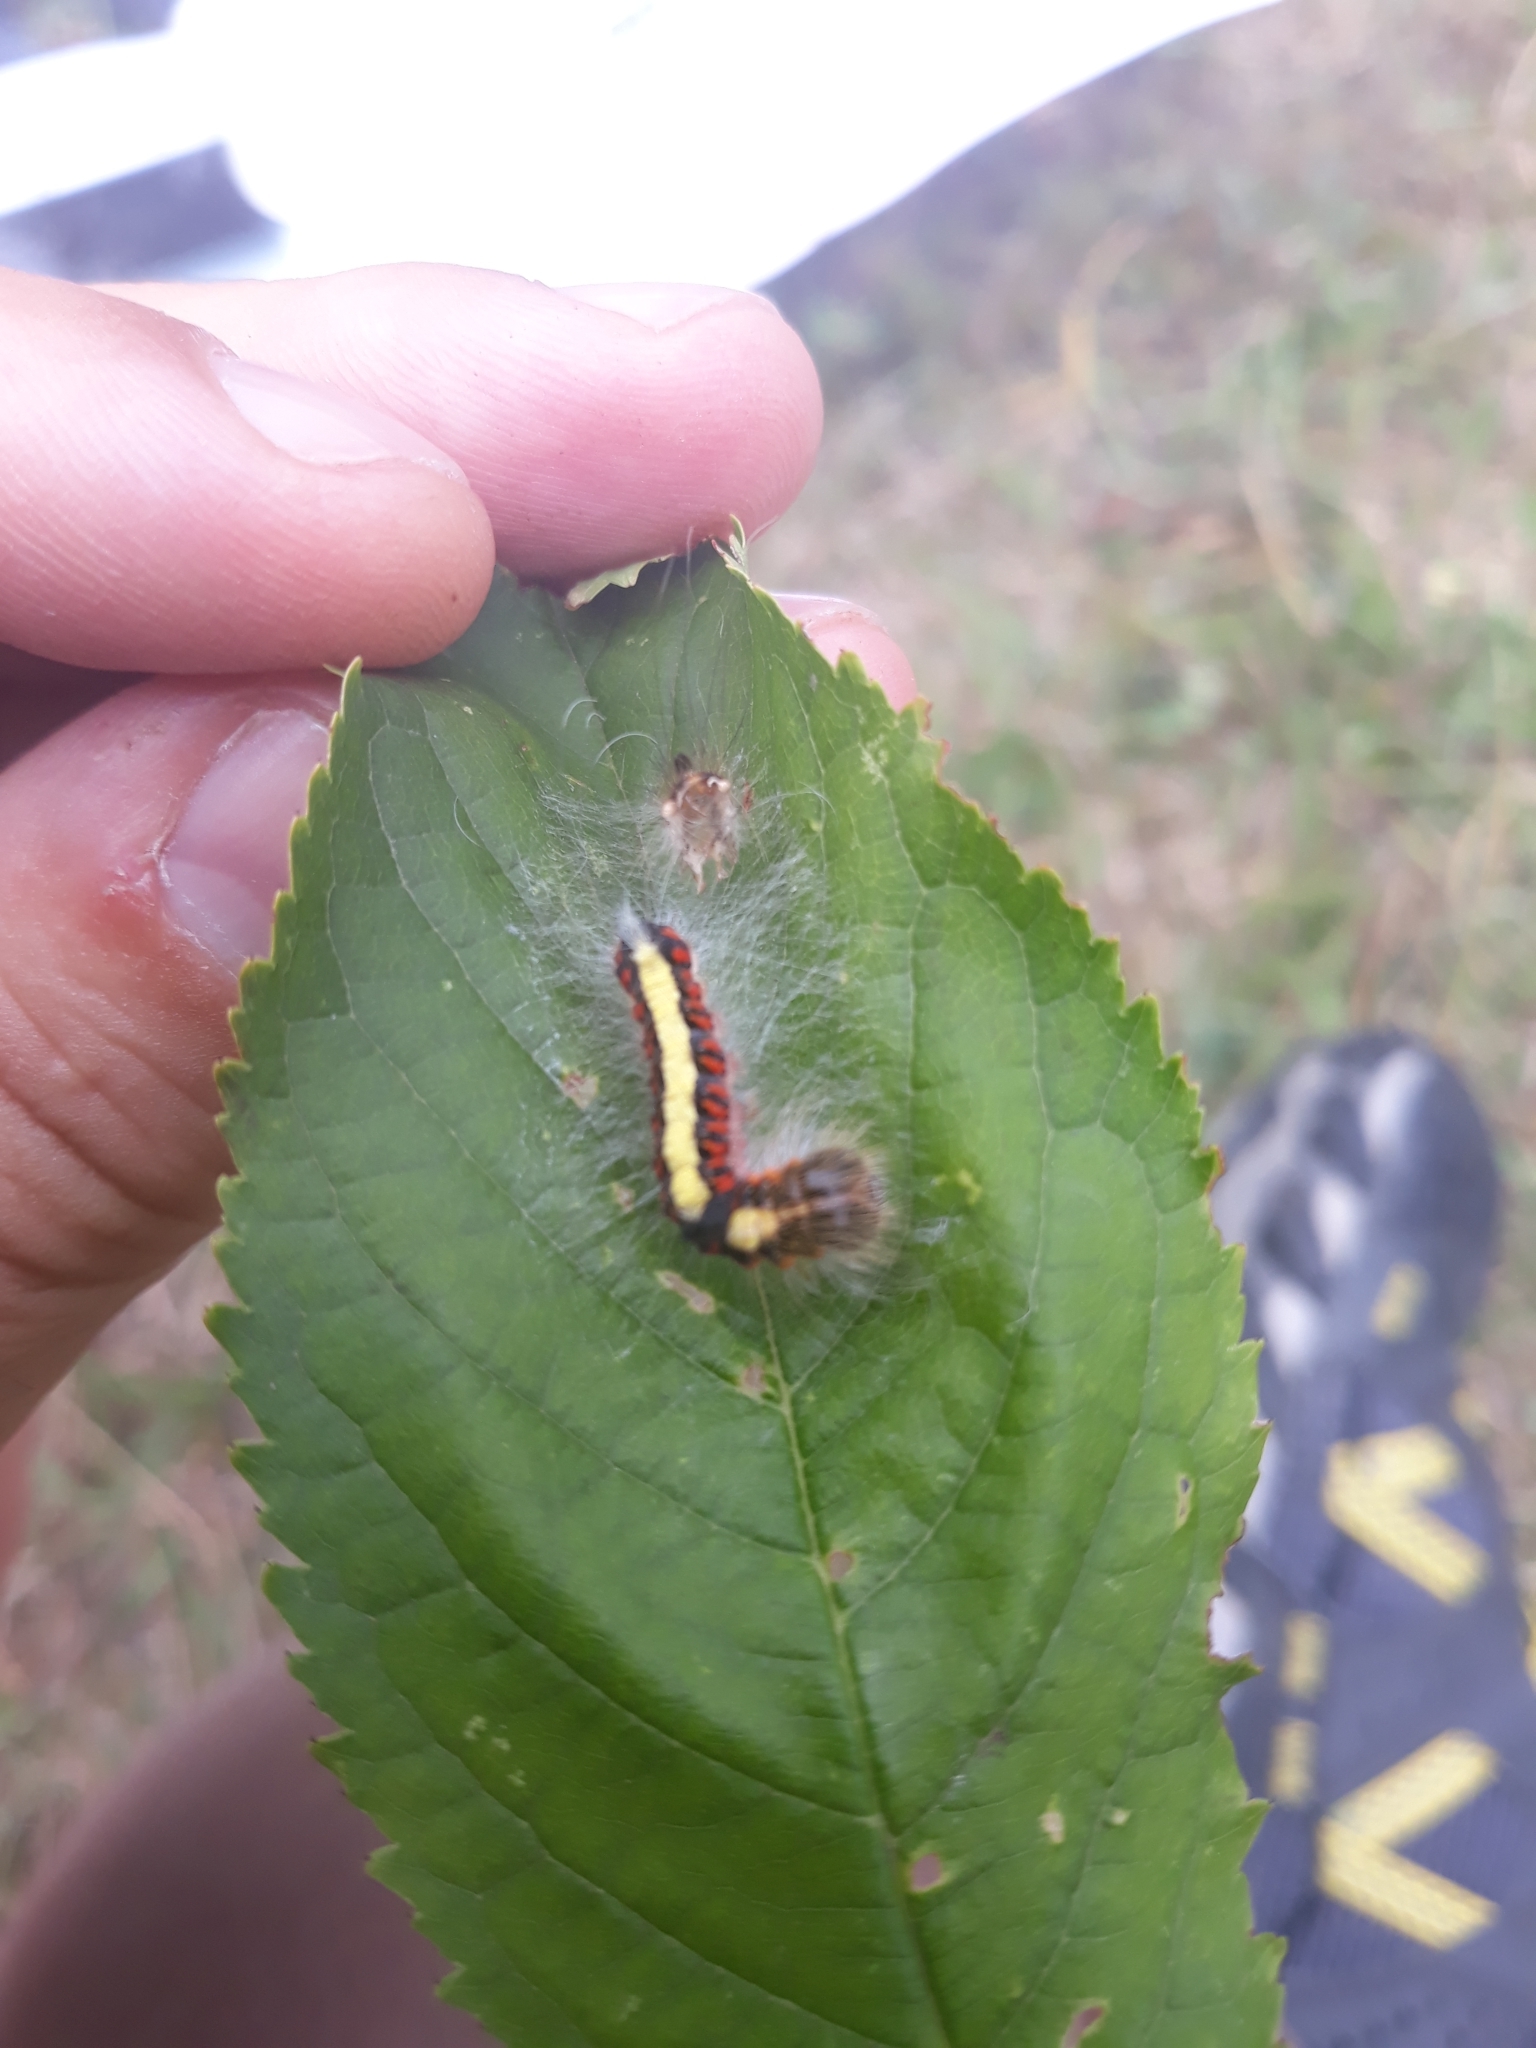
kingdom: Animalia
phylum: Arthropoda
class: Insecta
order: Lepidoptera
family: Noctuidae
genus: Acronicta
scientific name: Acronicta psi
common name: Grey dagger
